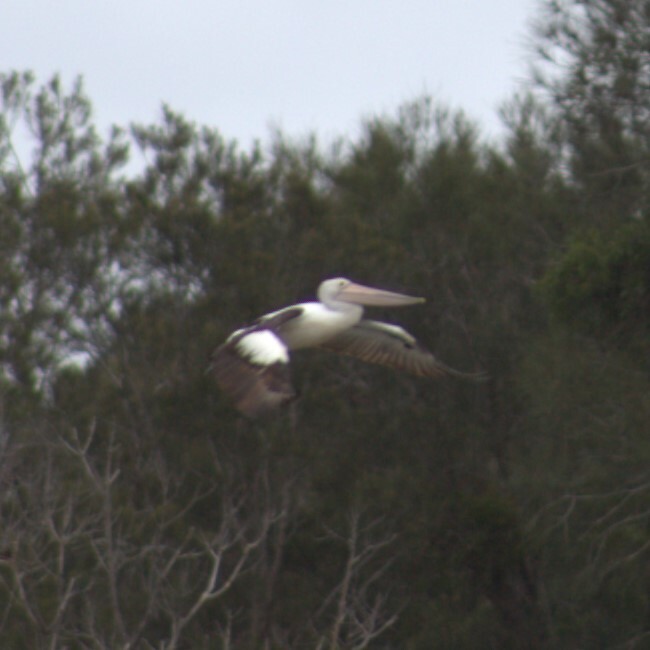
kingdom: Animalia
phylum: Chordata
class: Aves
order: Pelecaniformes
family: Pelecanidae
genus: Pelecanus
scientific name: Pelecanus conspicillatus
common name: Australian pelican
